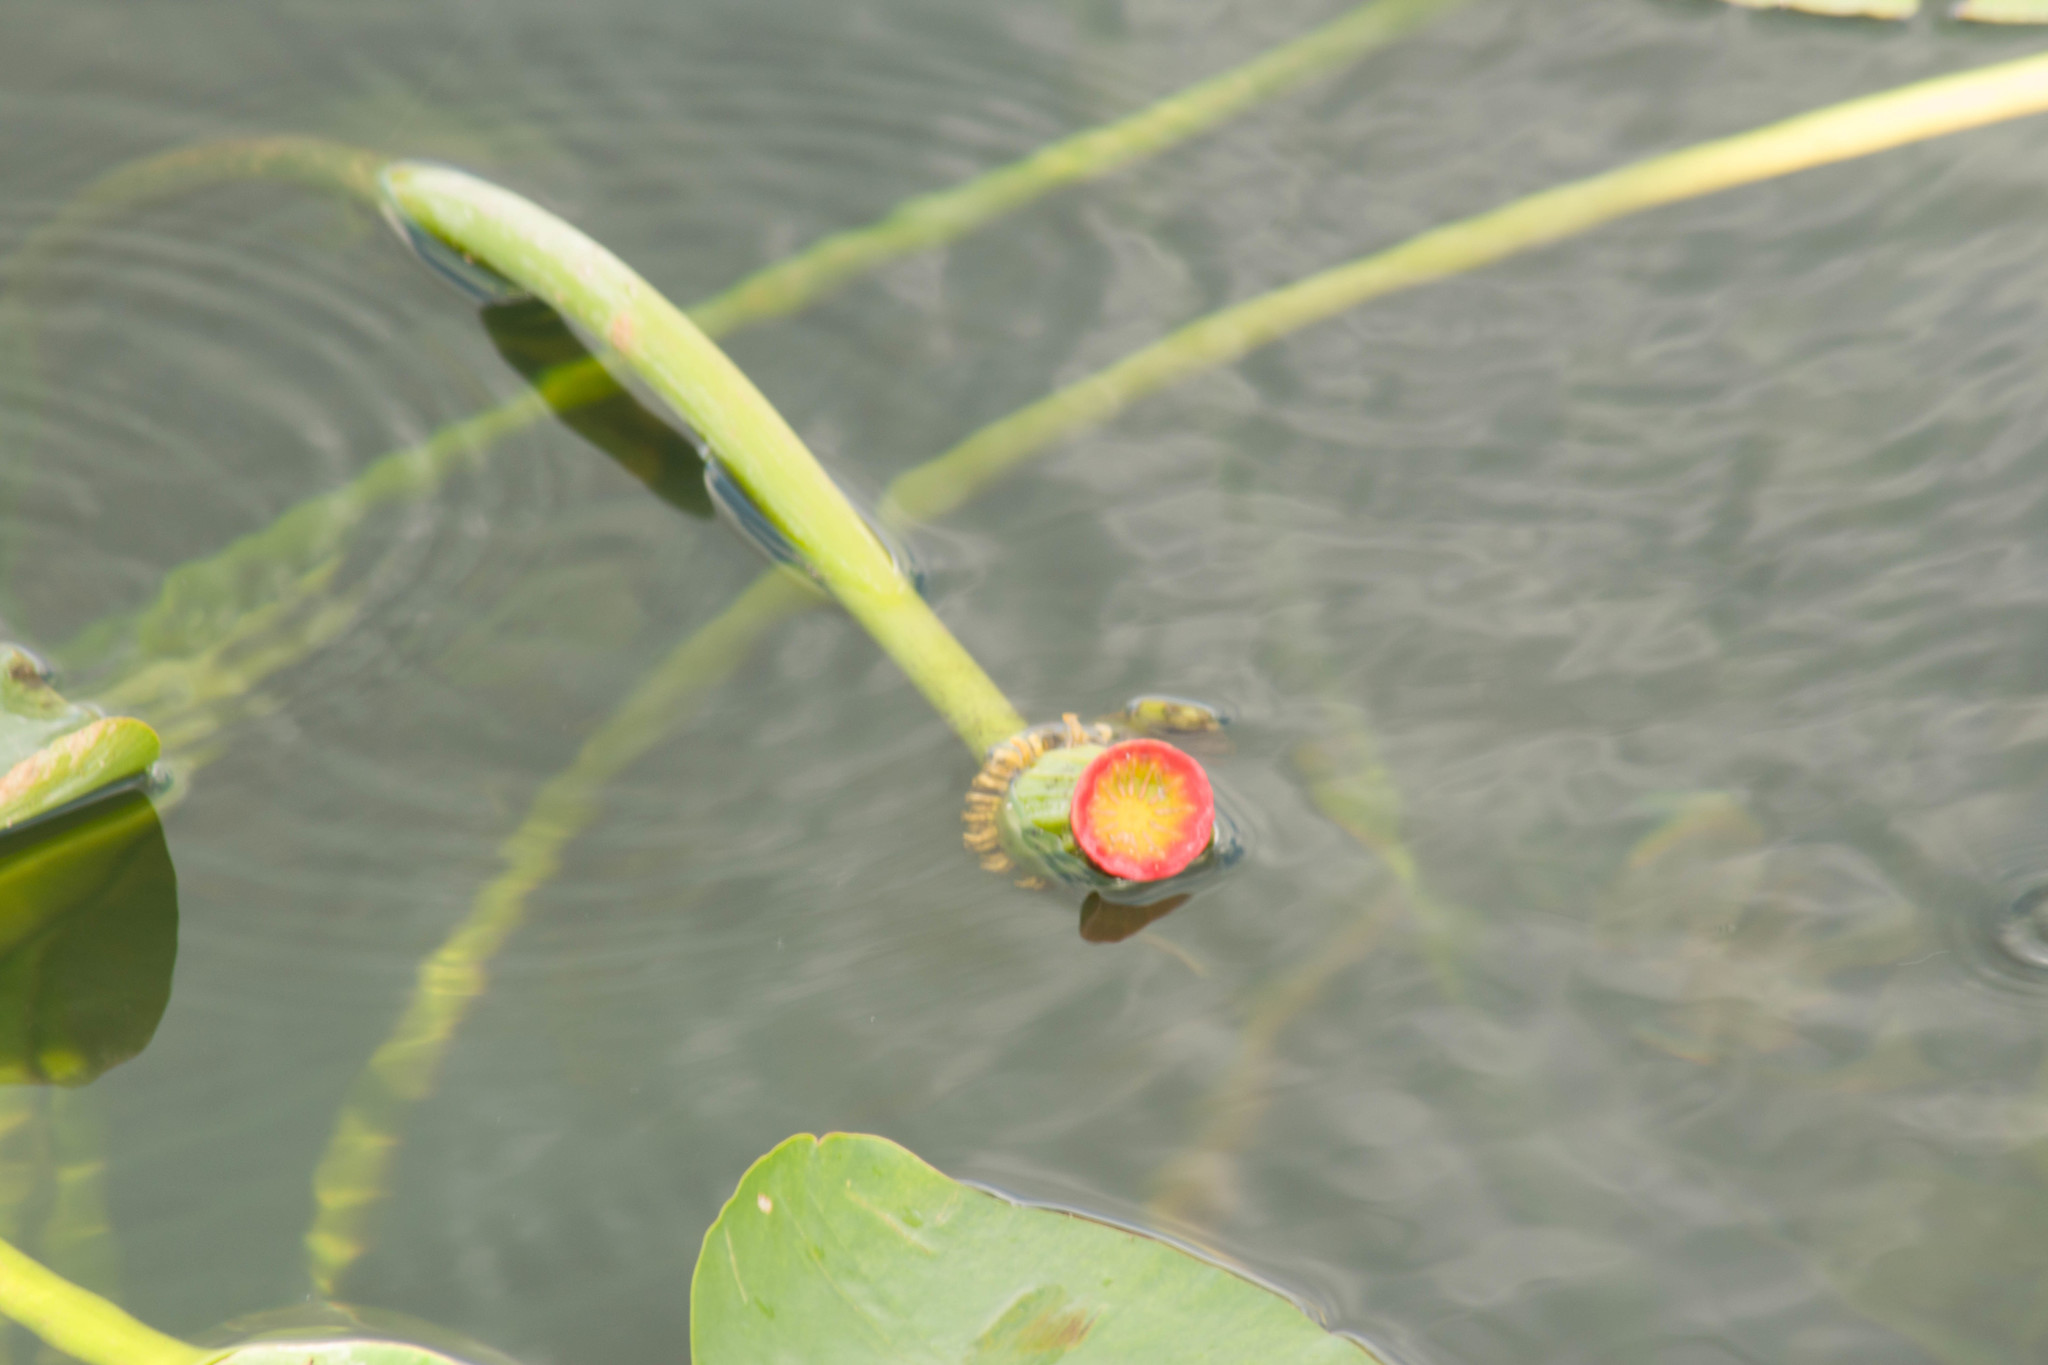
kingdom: Plantae
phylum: Tracheophyta
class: Magnoliopsida
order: Nymphaeales
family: Nymphaeaceae
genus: Nuphar
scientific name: Nuphar advena
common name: Spatter-dock
